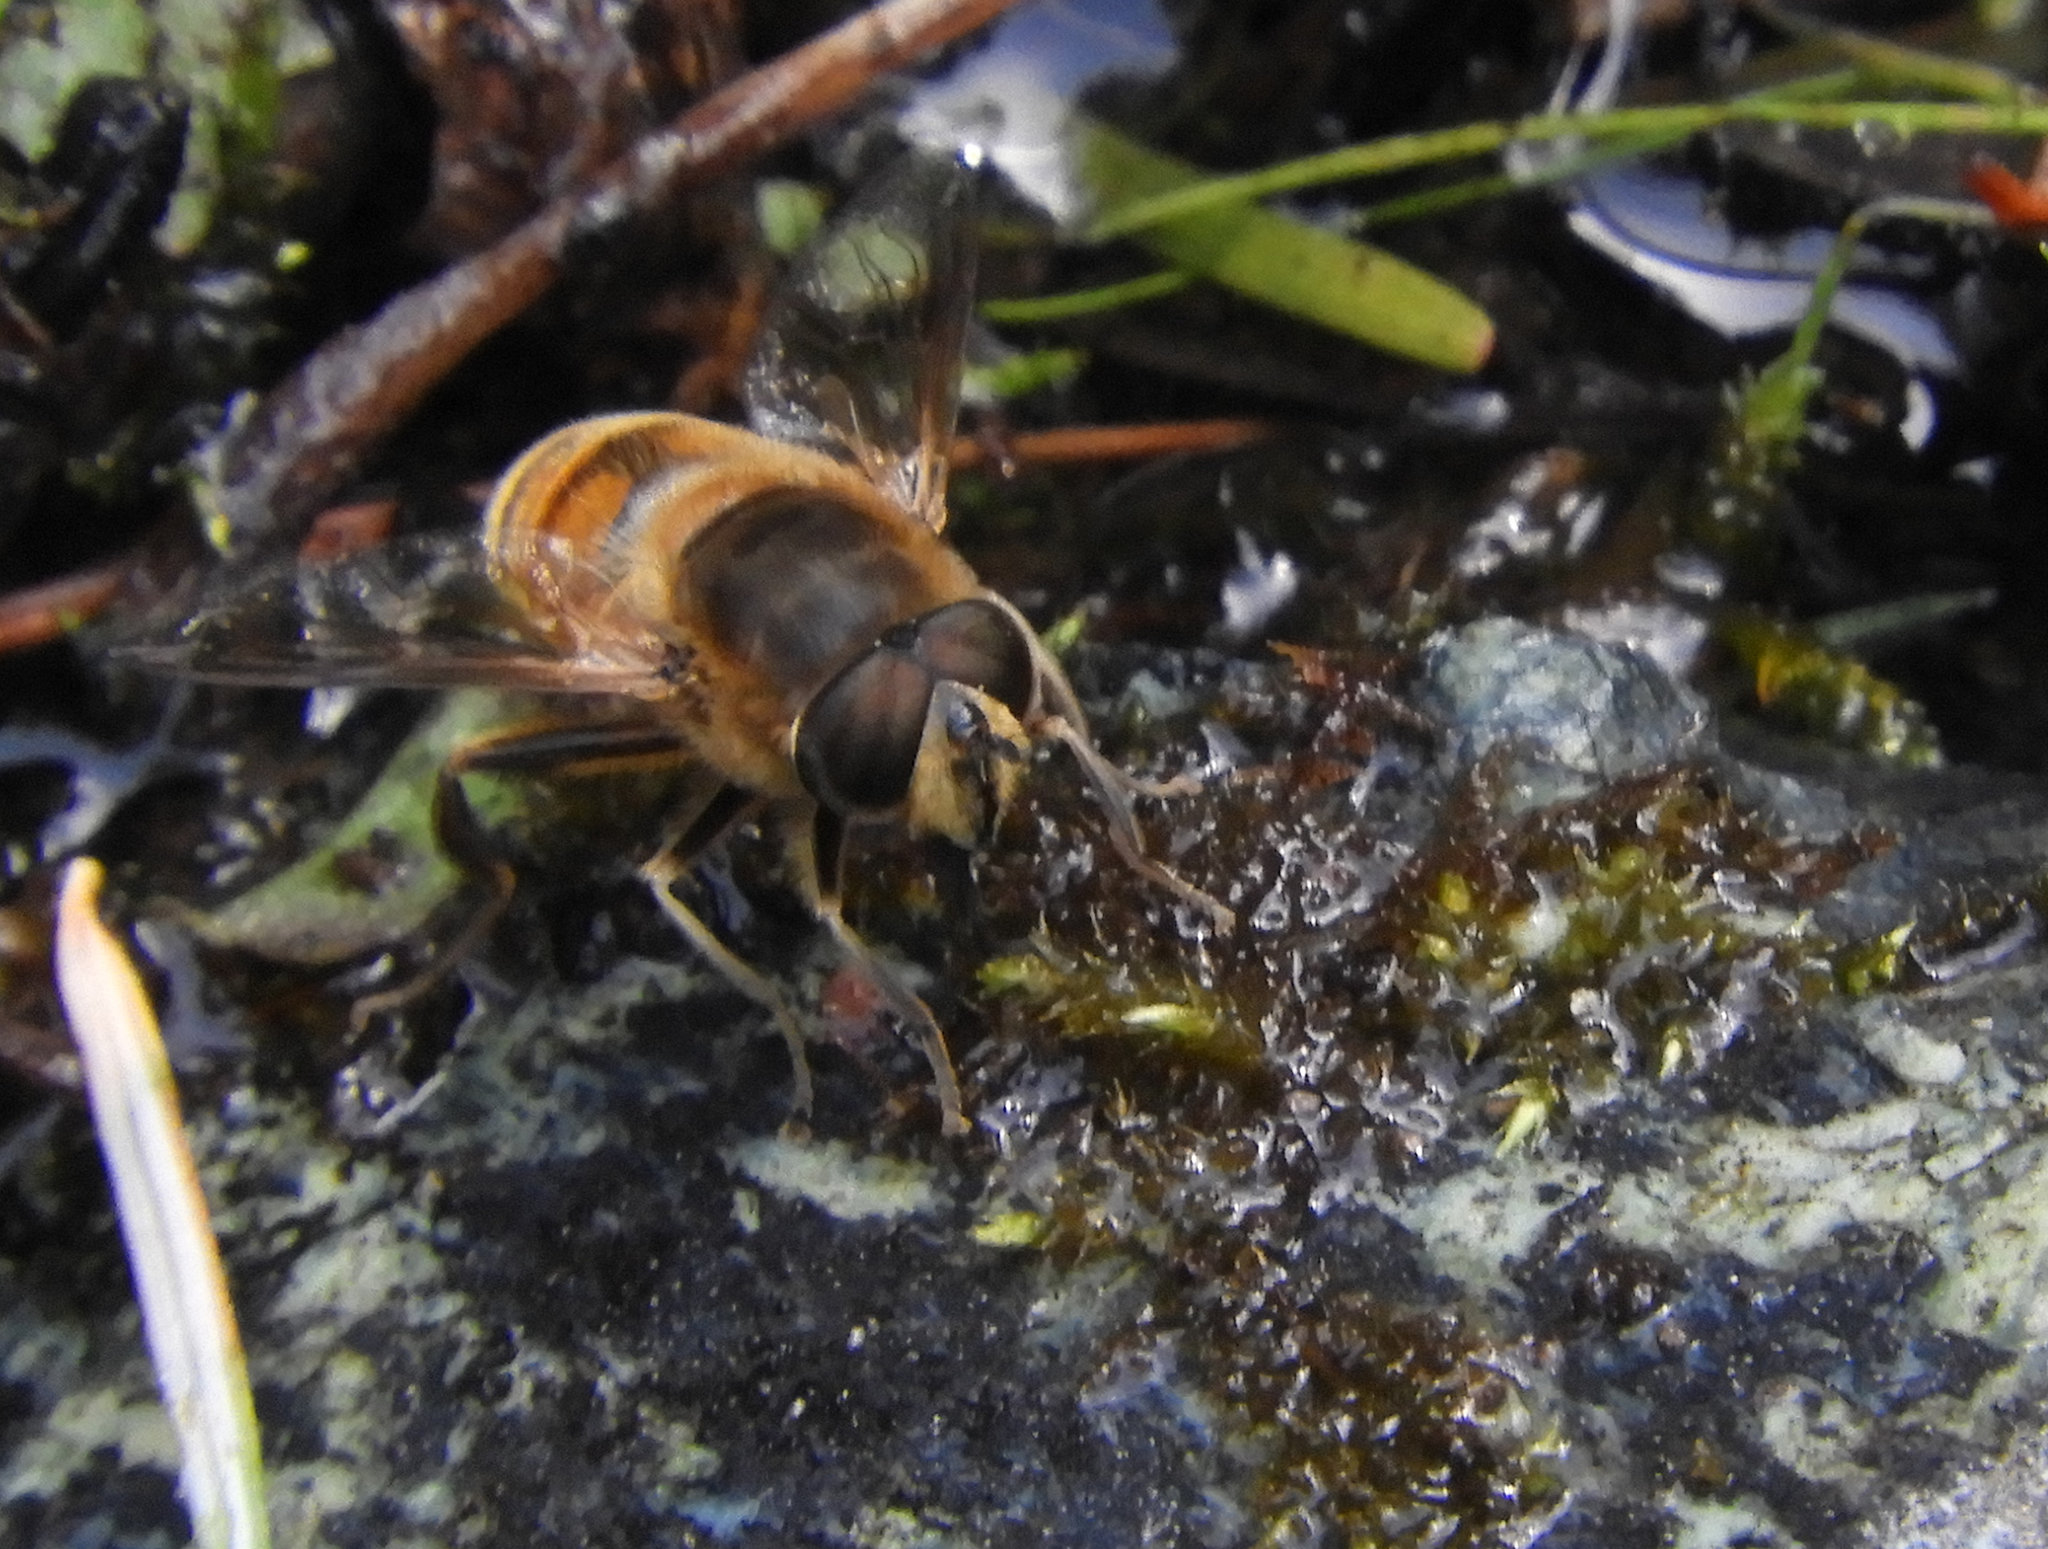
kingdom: Animalia
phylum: Arthropoda
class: Insecta
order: Diptera
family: Syrphidae
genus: Eristalis
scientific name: Eristalis tenax
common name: Drone fly
